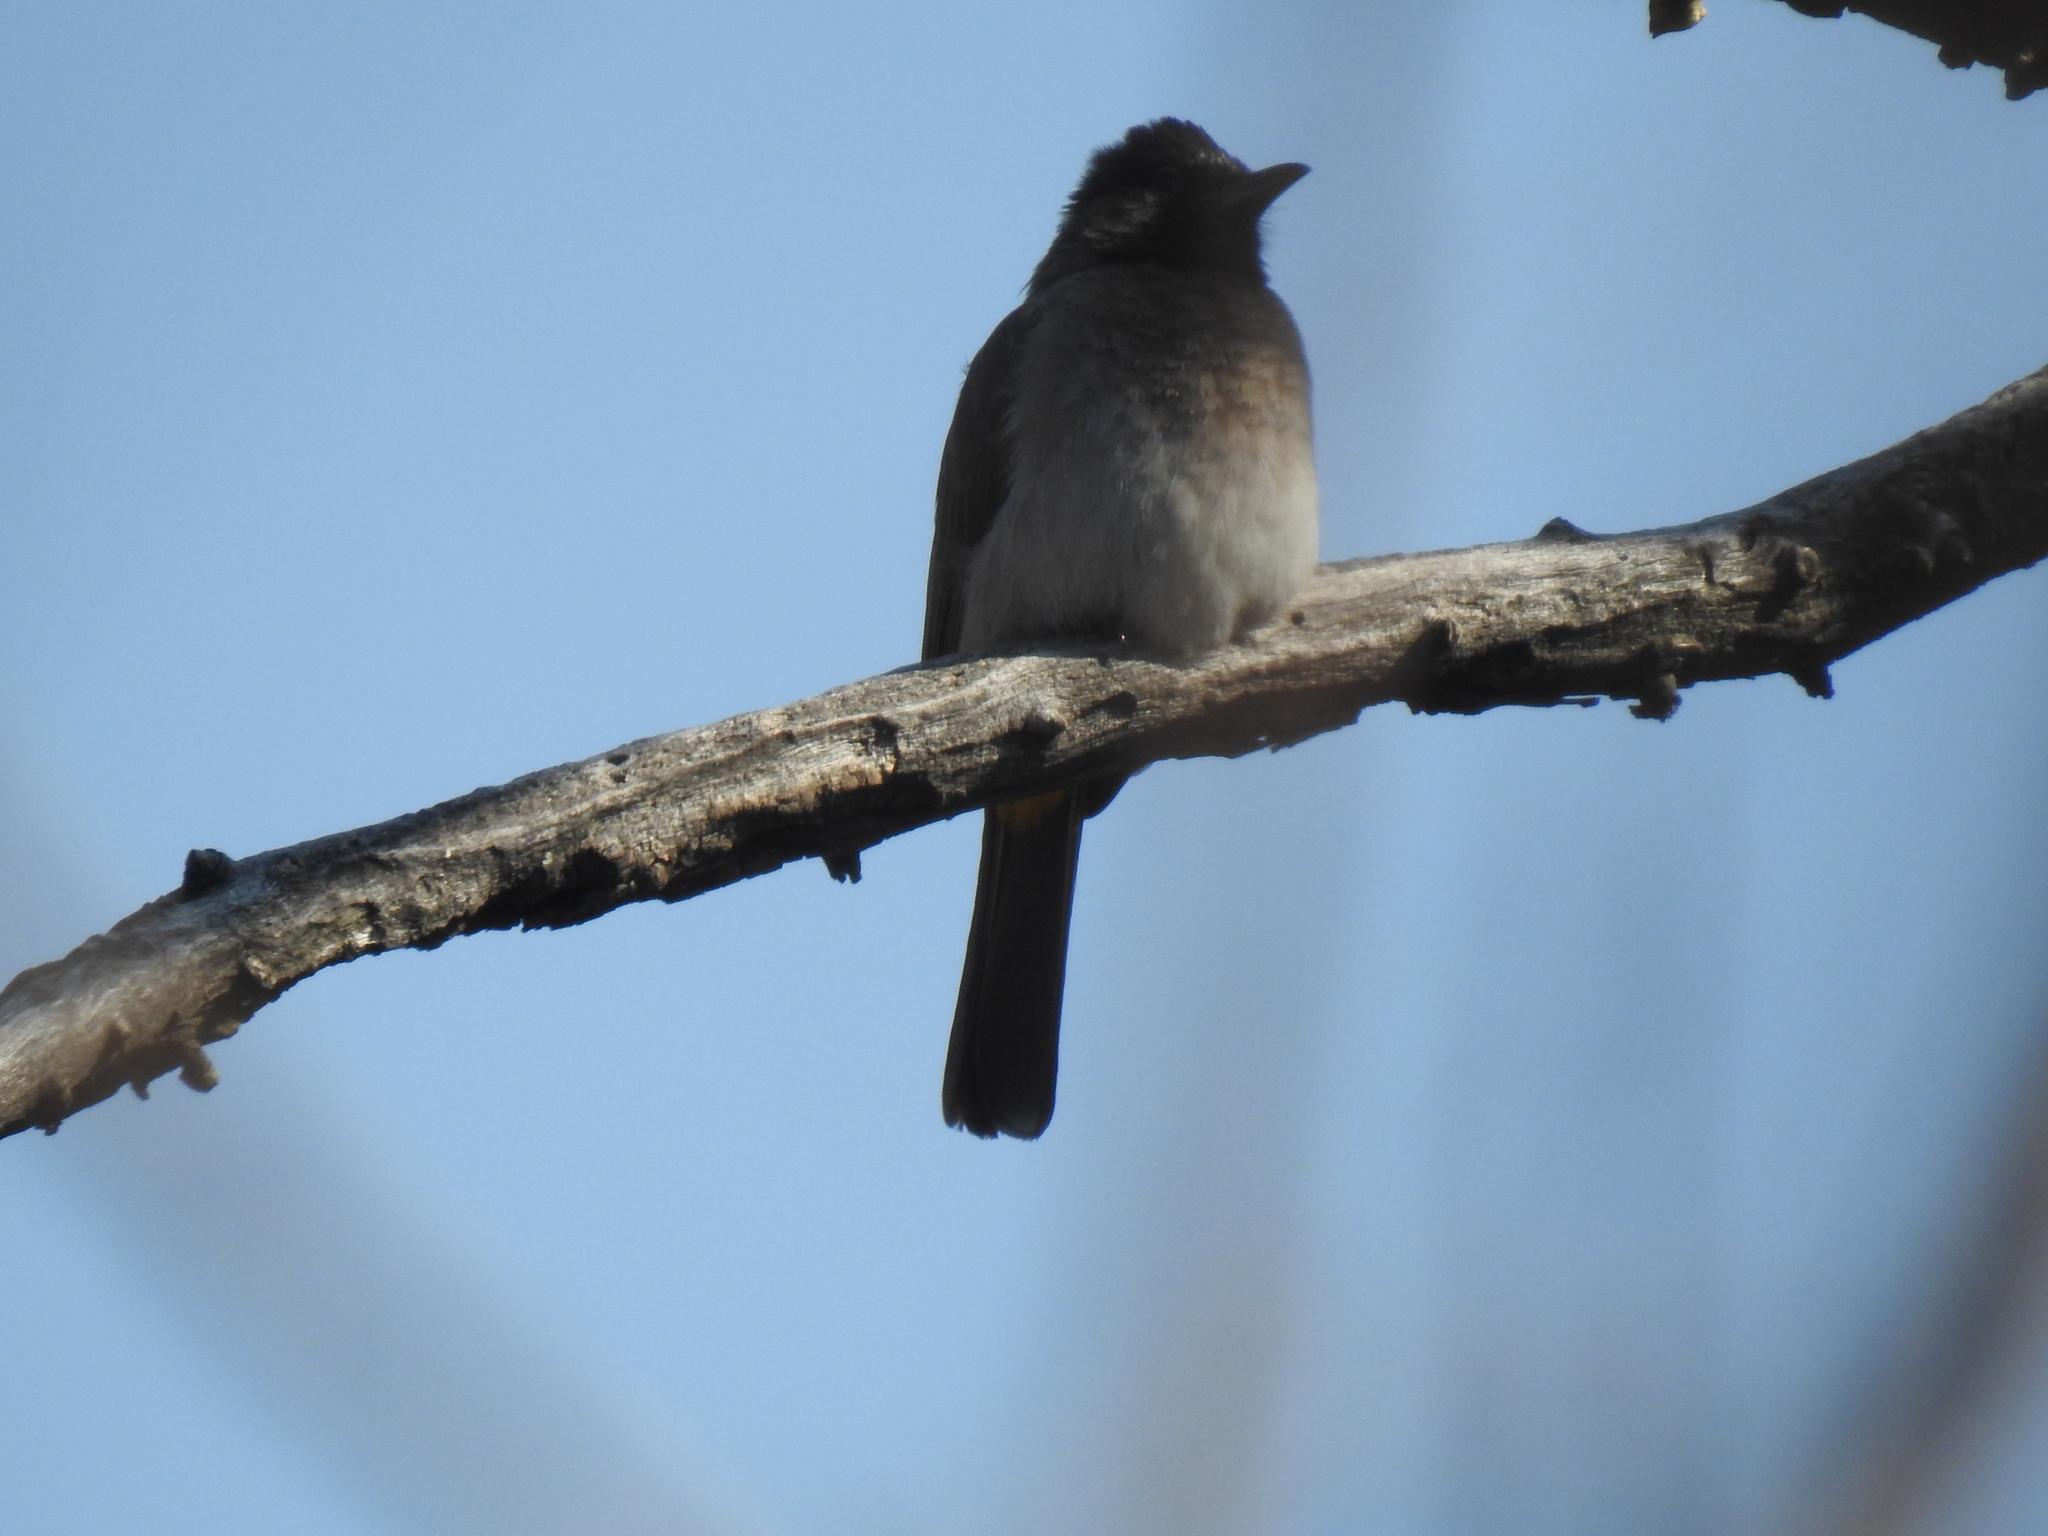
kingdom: Animalia
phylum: Chordata
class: Aves
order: Passeriformes
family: Pycnonotidae
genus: Pycnonotus
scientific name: Pycnonotus barbatus
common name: Common bulbul
